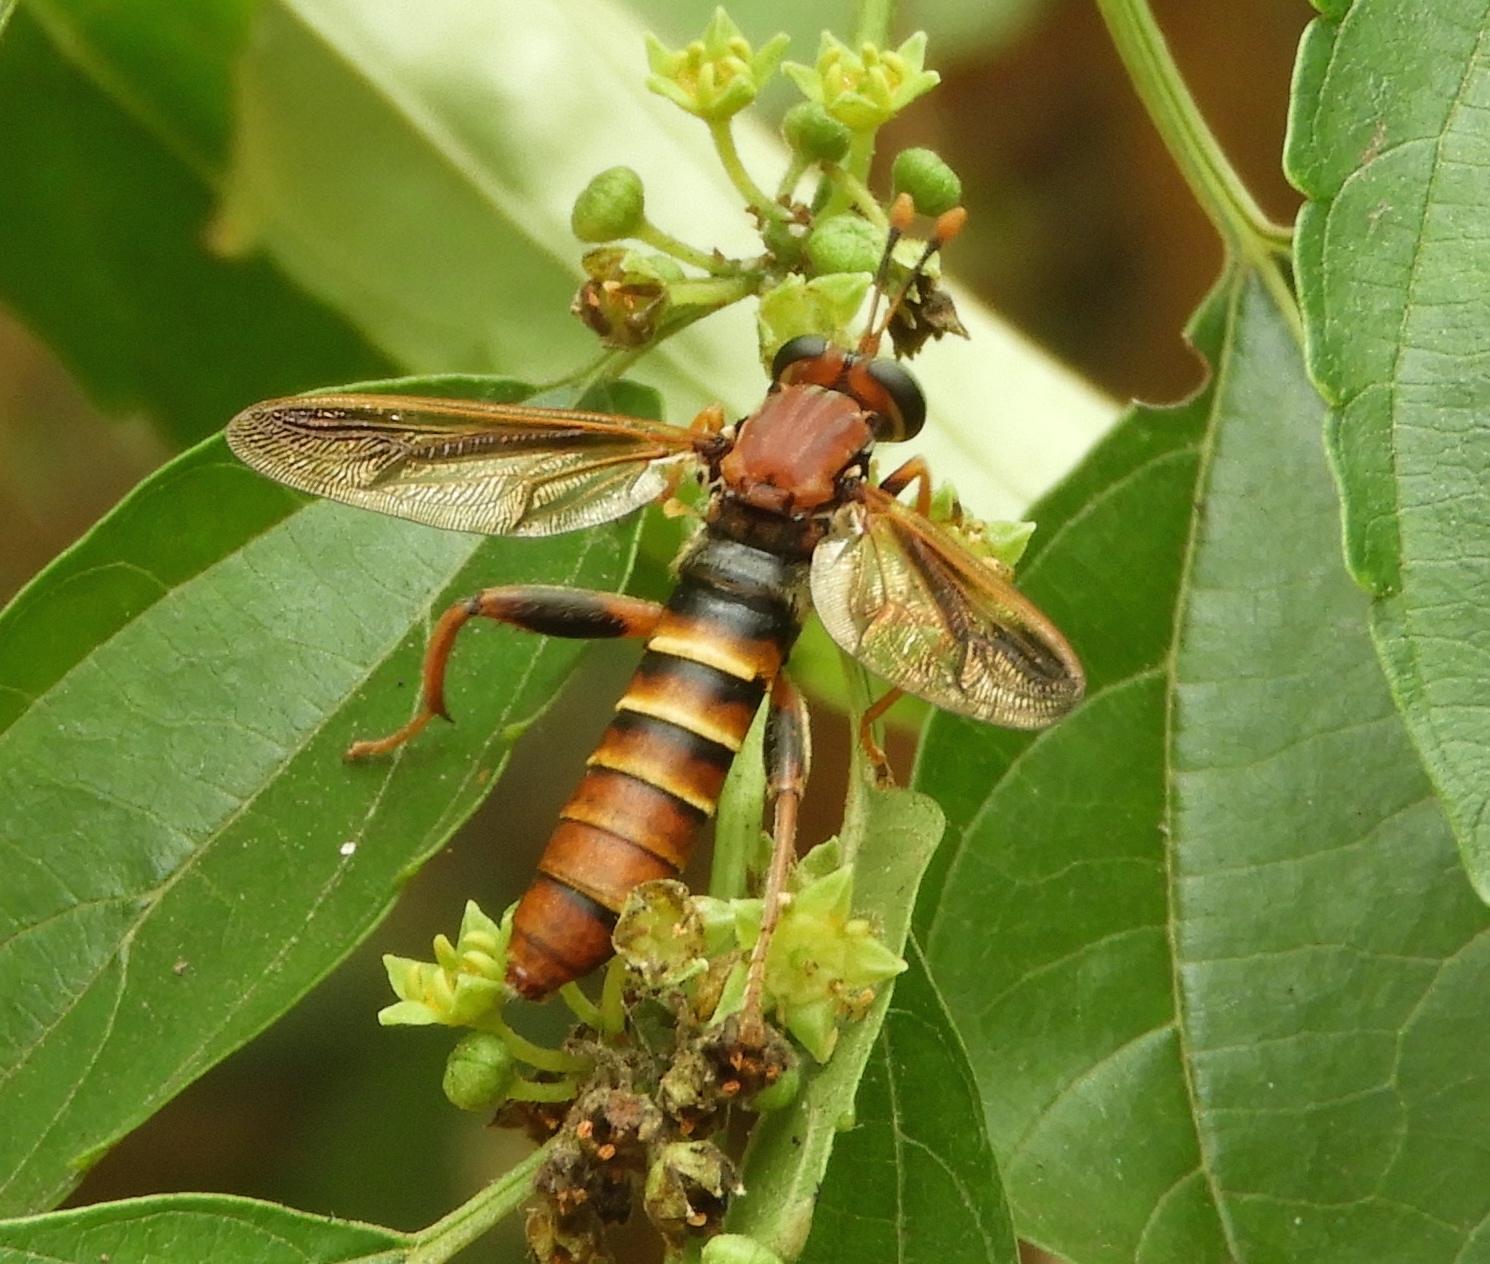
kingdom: Animalia
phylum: Arthropoda
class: Insecta
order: Diptera
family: Mydidae
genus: Mydas
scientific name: Mydas annularis
